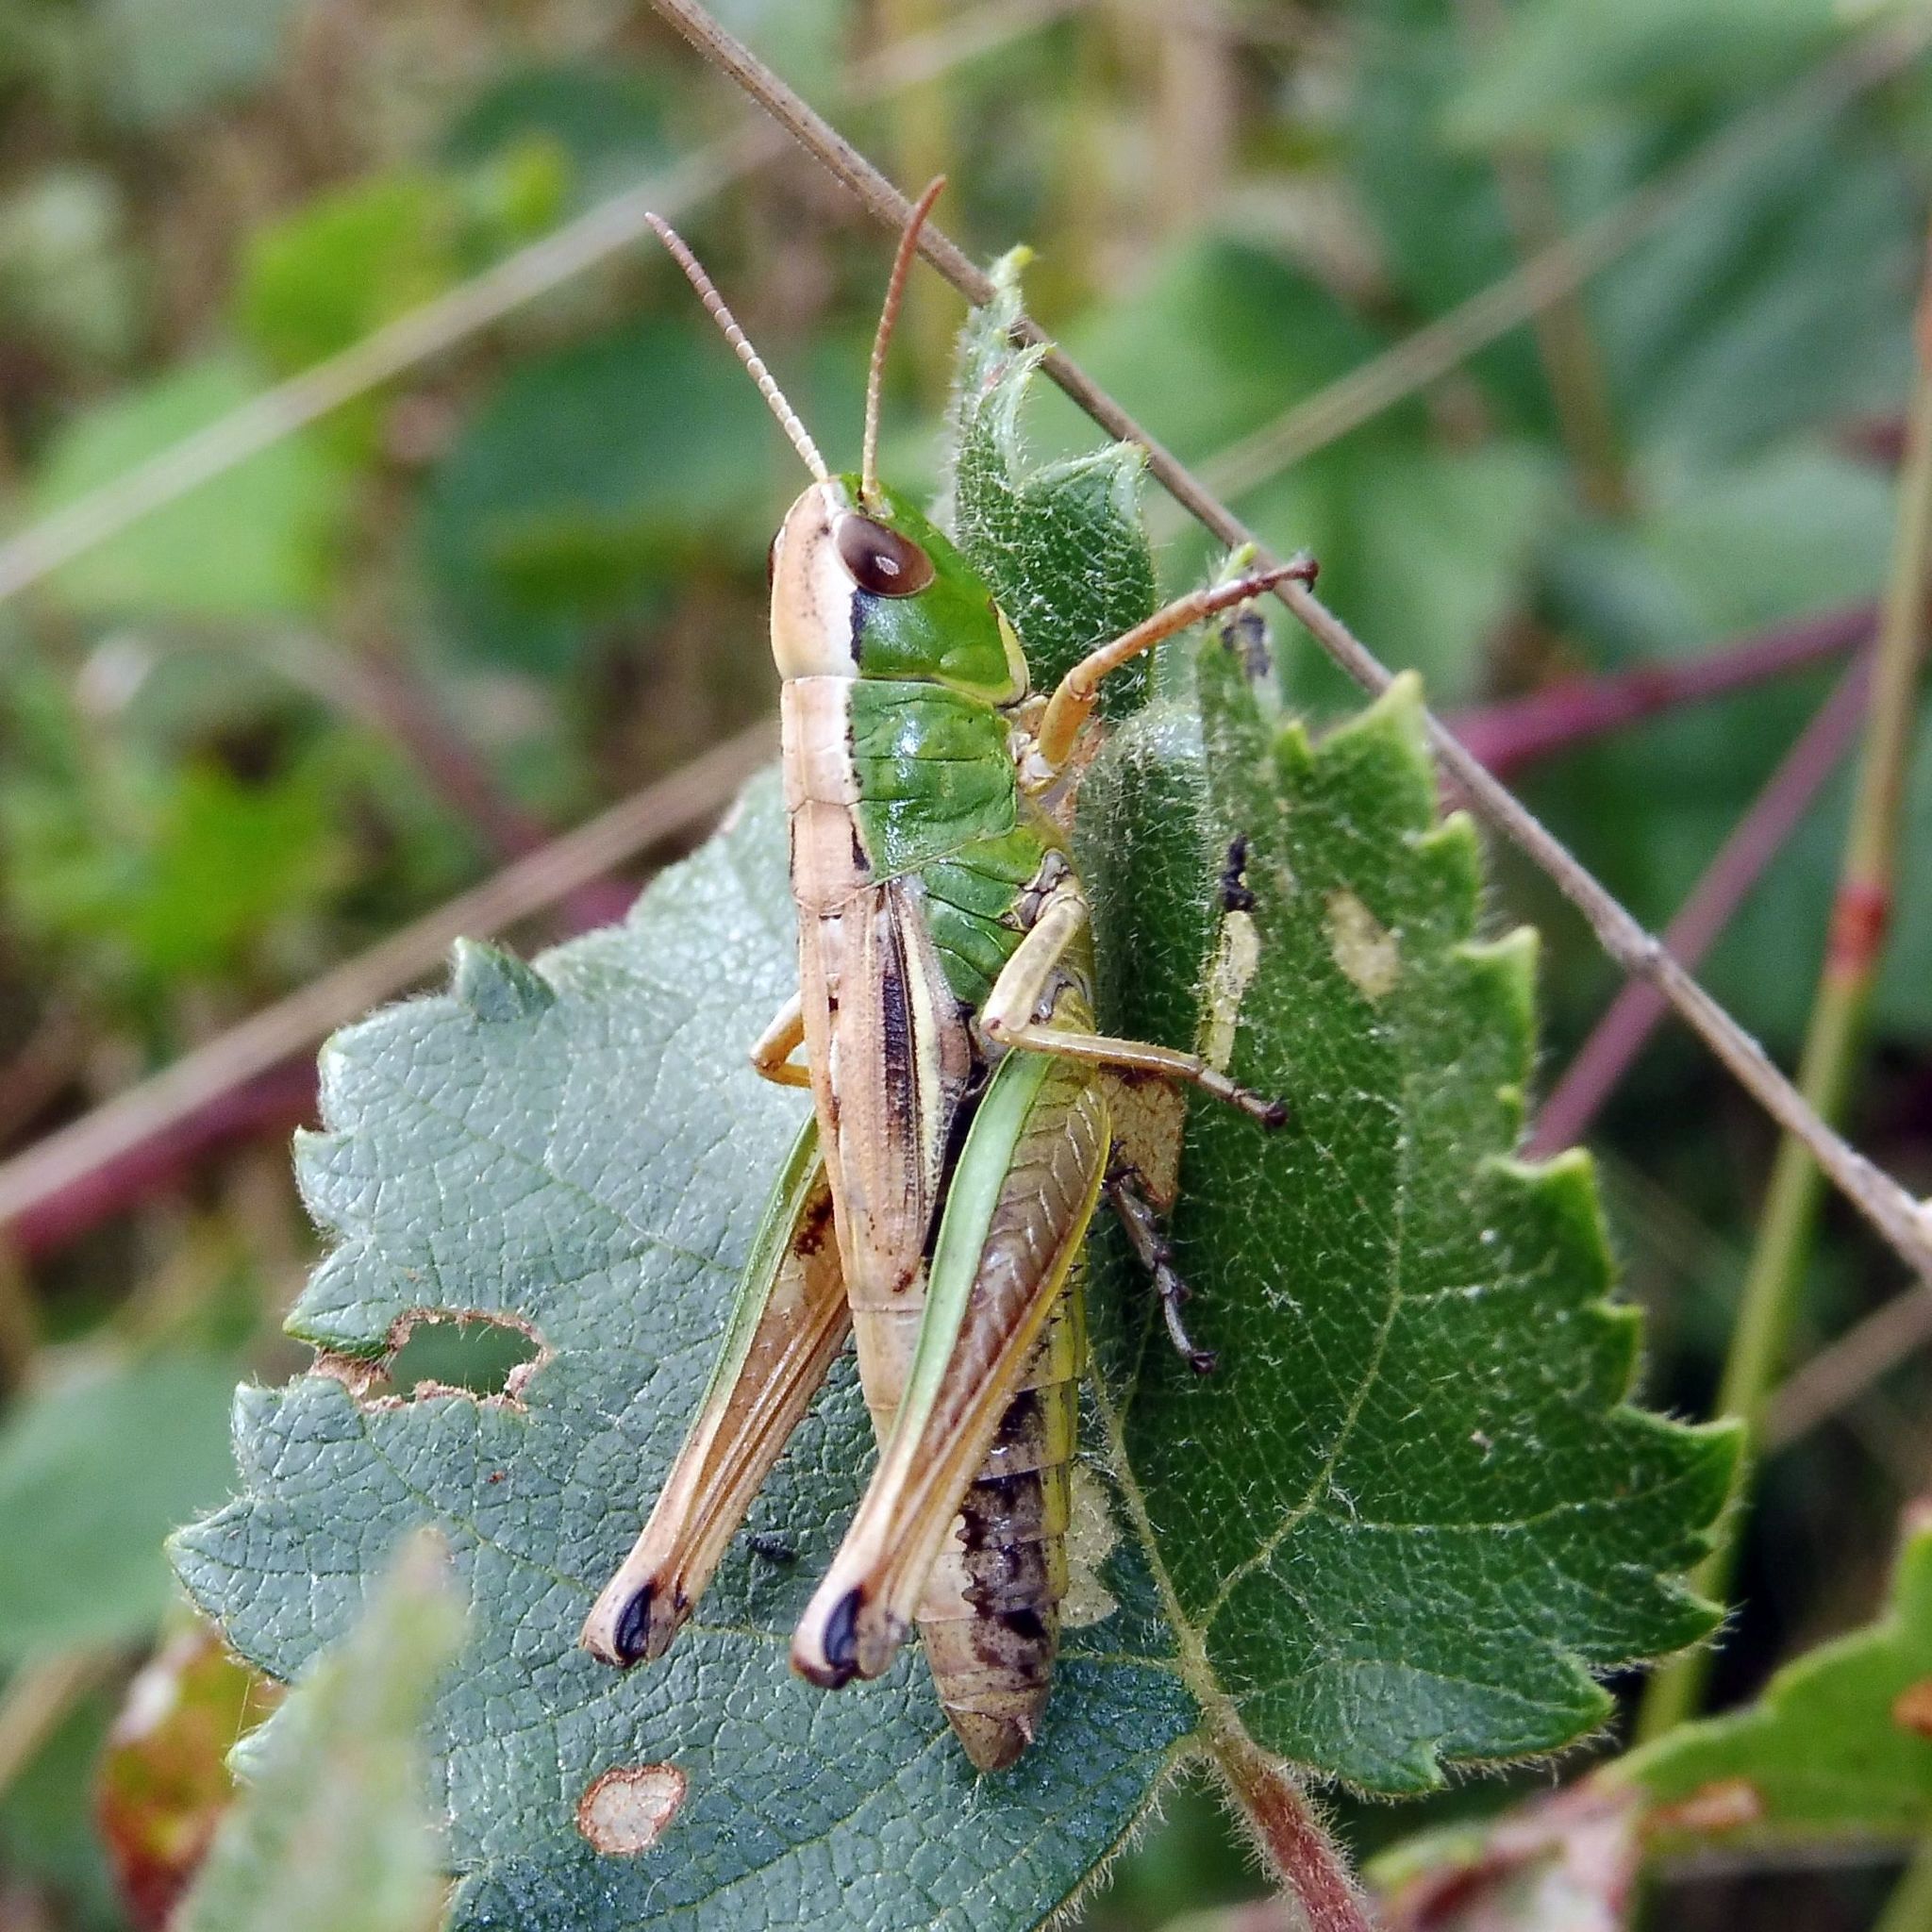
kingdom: Animalia
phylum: Arthropoda
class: Insecta
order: Orthoptera
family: Acrididae
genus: Pseudochorthippus
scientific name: Pseudochorthippus parallelus
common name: Meadow grasshopper
